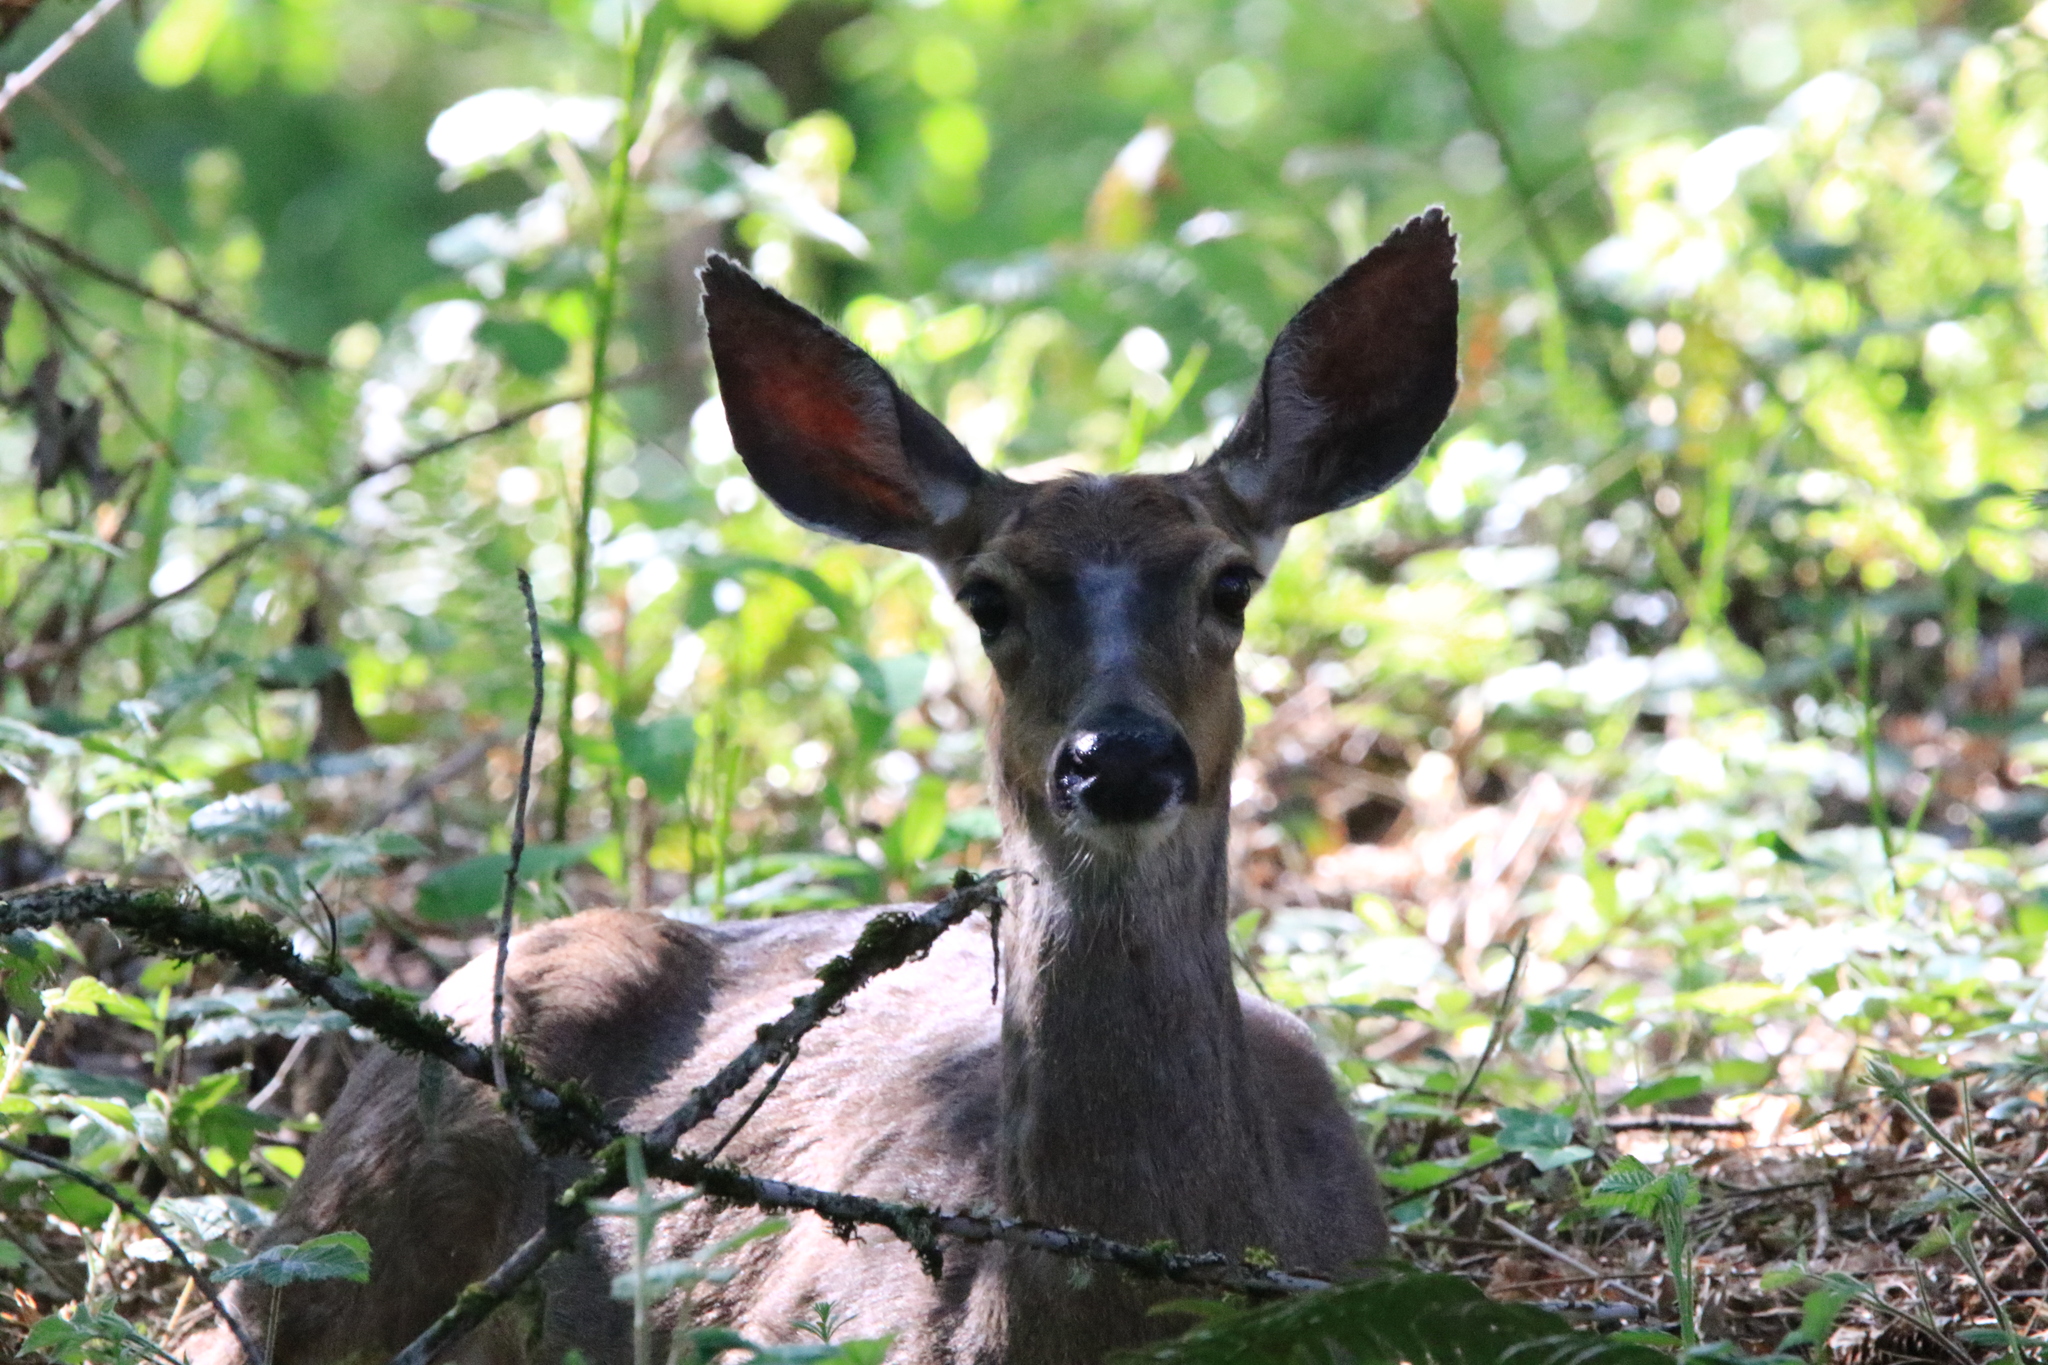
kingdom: Animalia
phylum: Chordata
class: Mammalia
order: Artiodactyla
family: Cervidae
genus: Odocoileus
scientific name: Odocoileus hemionus
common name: Mule deer
